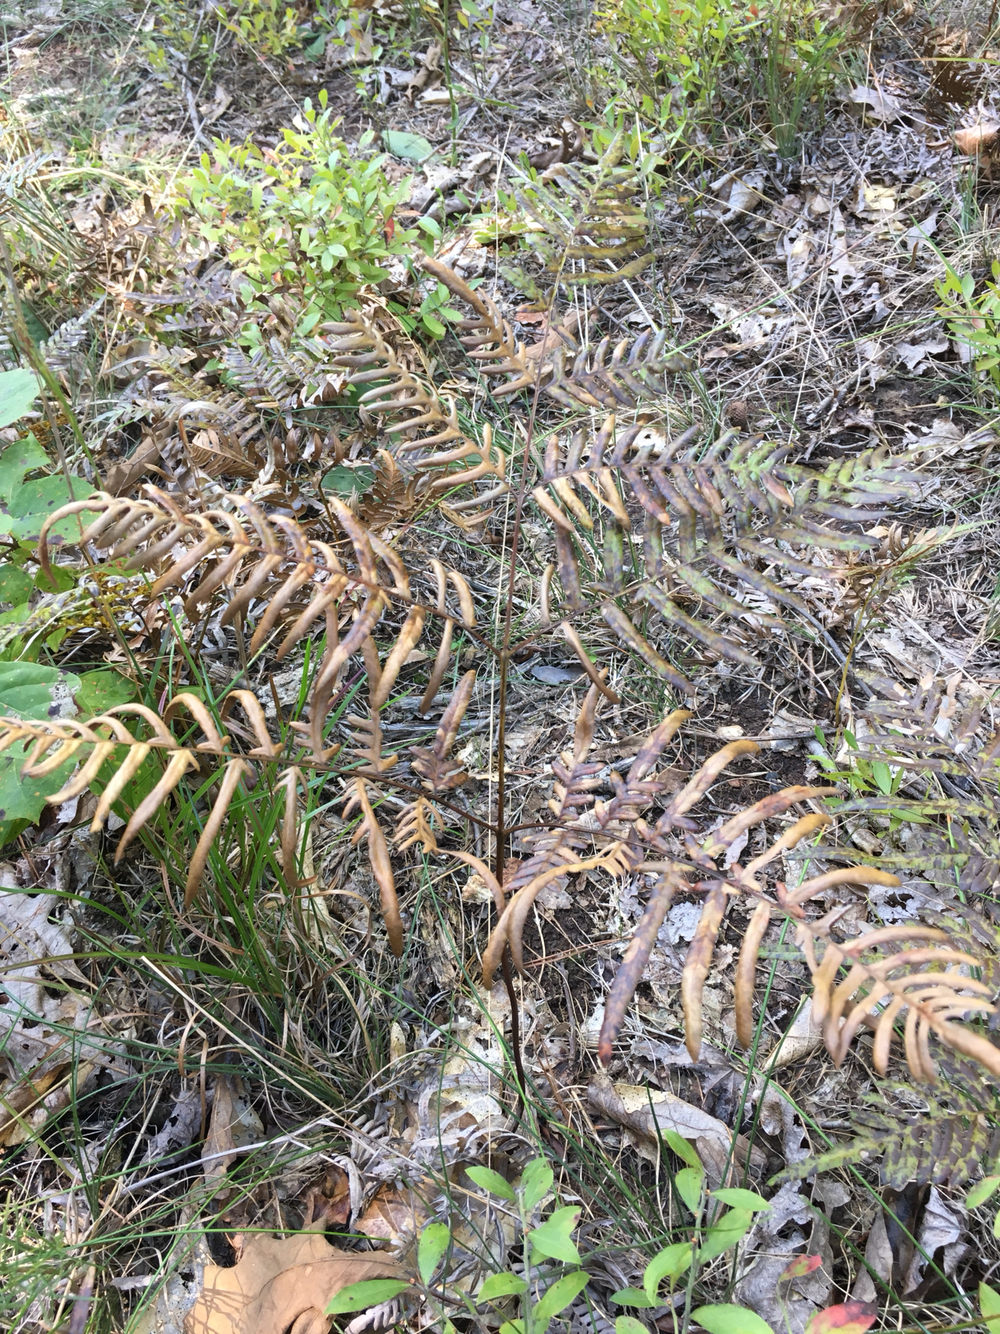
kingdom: Plantae
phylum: Tracheophyta
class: Polypodiopsida
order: Polypodiales
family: Dennstaedtiaceae
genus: Pteridium
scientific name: Pteridium
